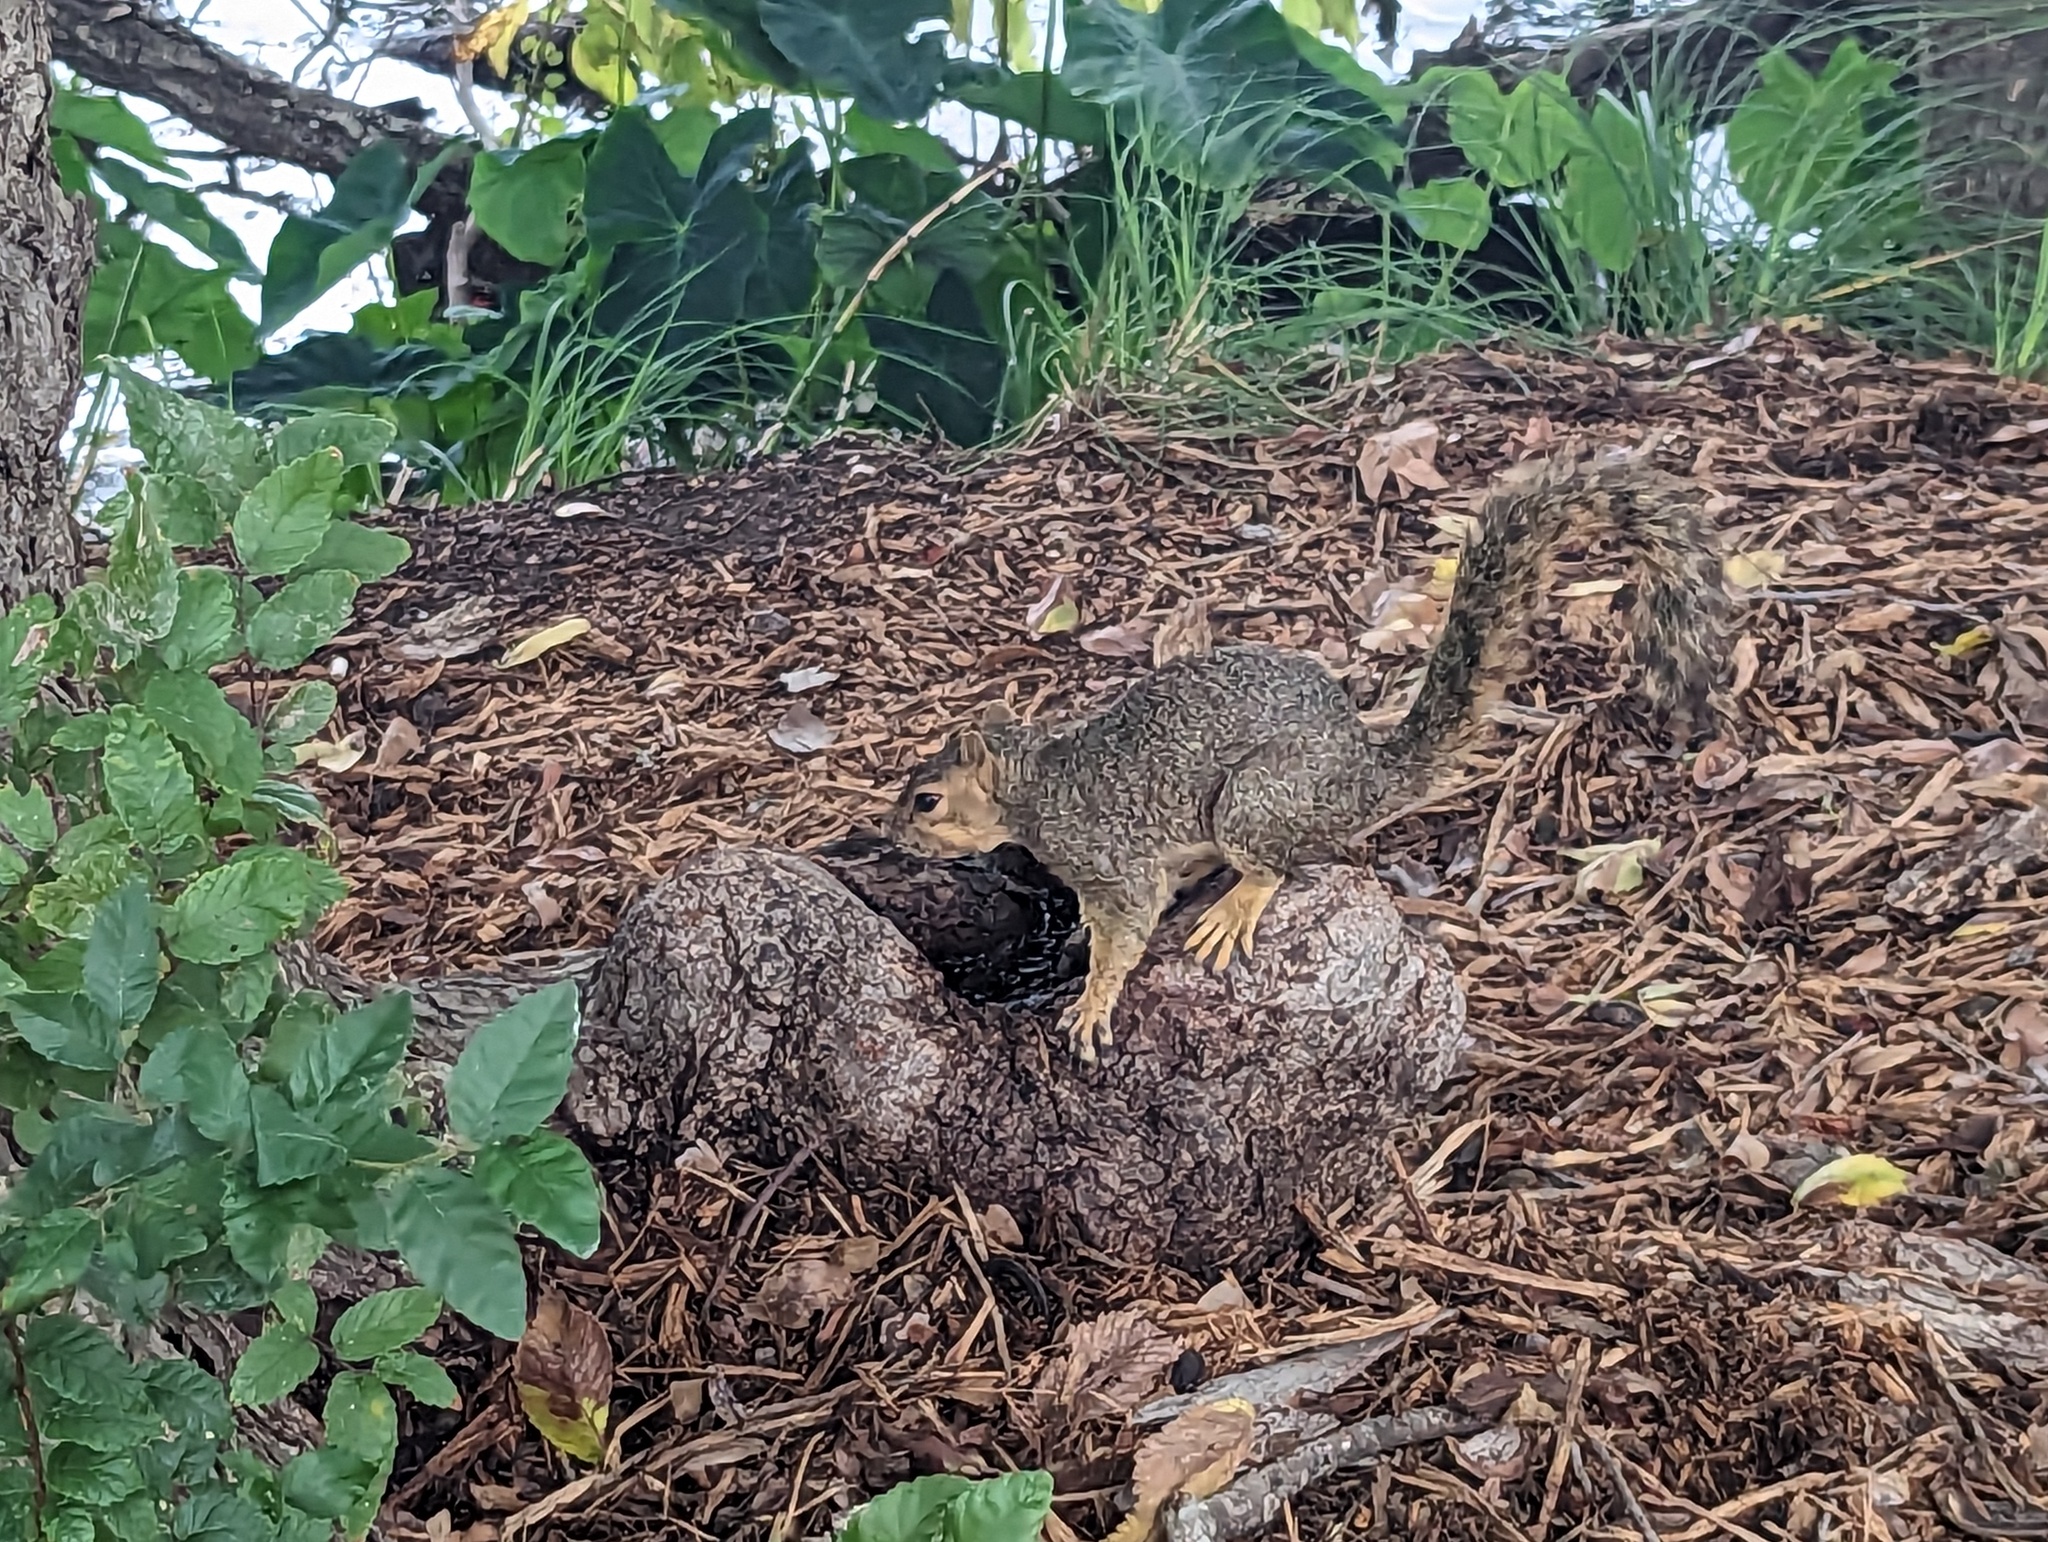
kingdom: Animalia
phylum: Chordata
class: Mammalia
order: Rodentia
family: Sciuridae
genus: Sciurus
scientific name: Sciurus niger
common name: Fox squirrel
